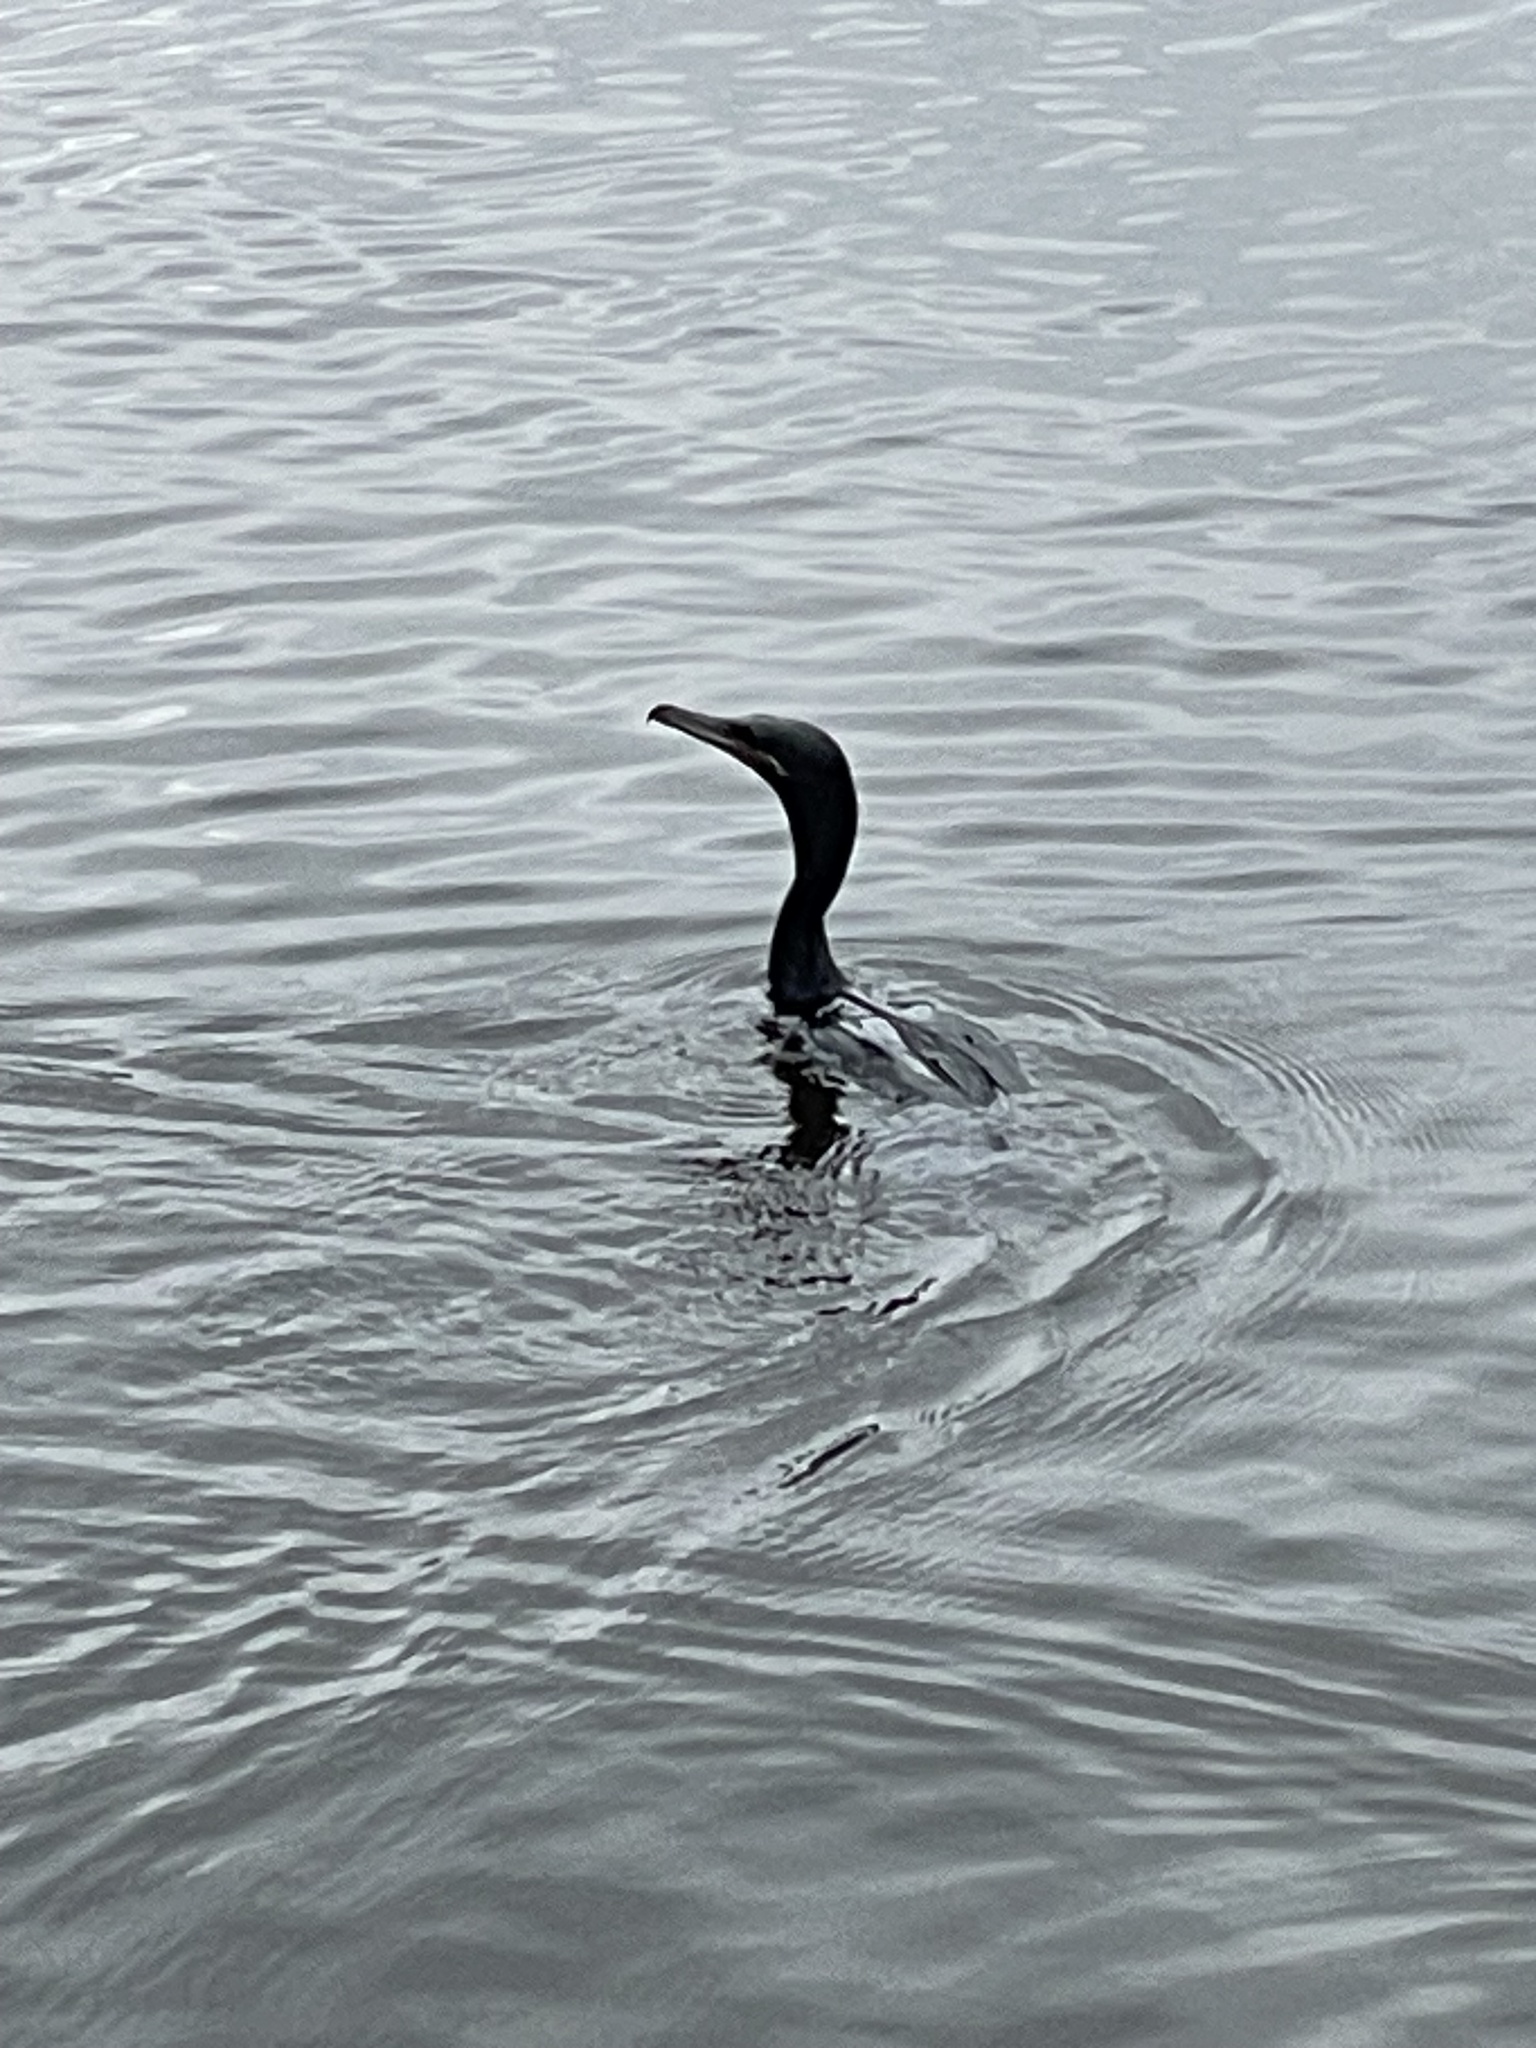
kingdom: Animalia
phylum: Chordata
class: Aves
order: Suliformes
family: Phalacrocoracidae
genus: Phalacrocorax
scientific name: Phalacrocorax brasilianus
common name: Neotropic cormorant
